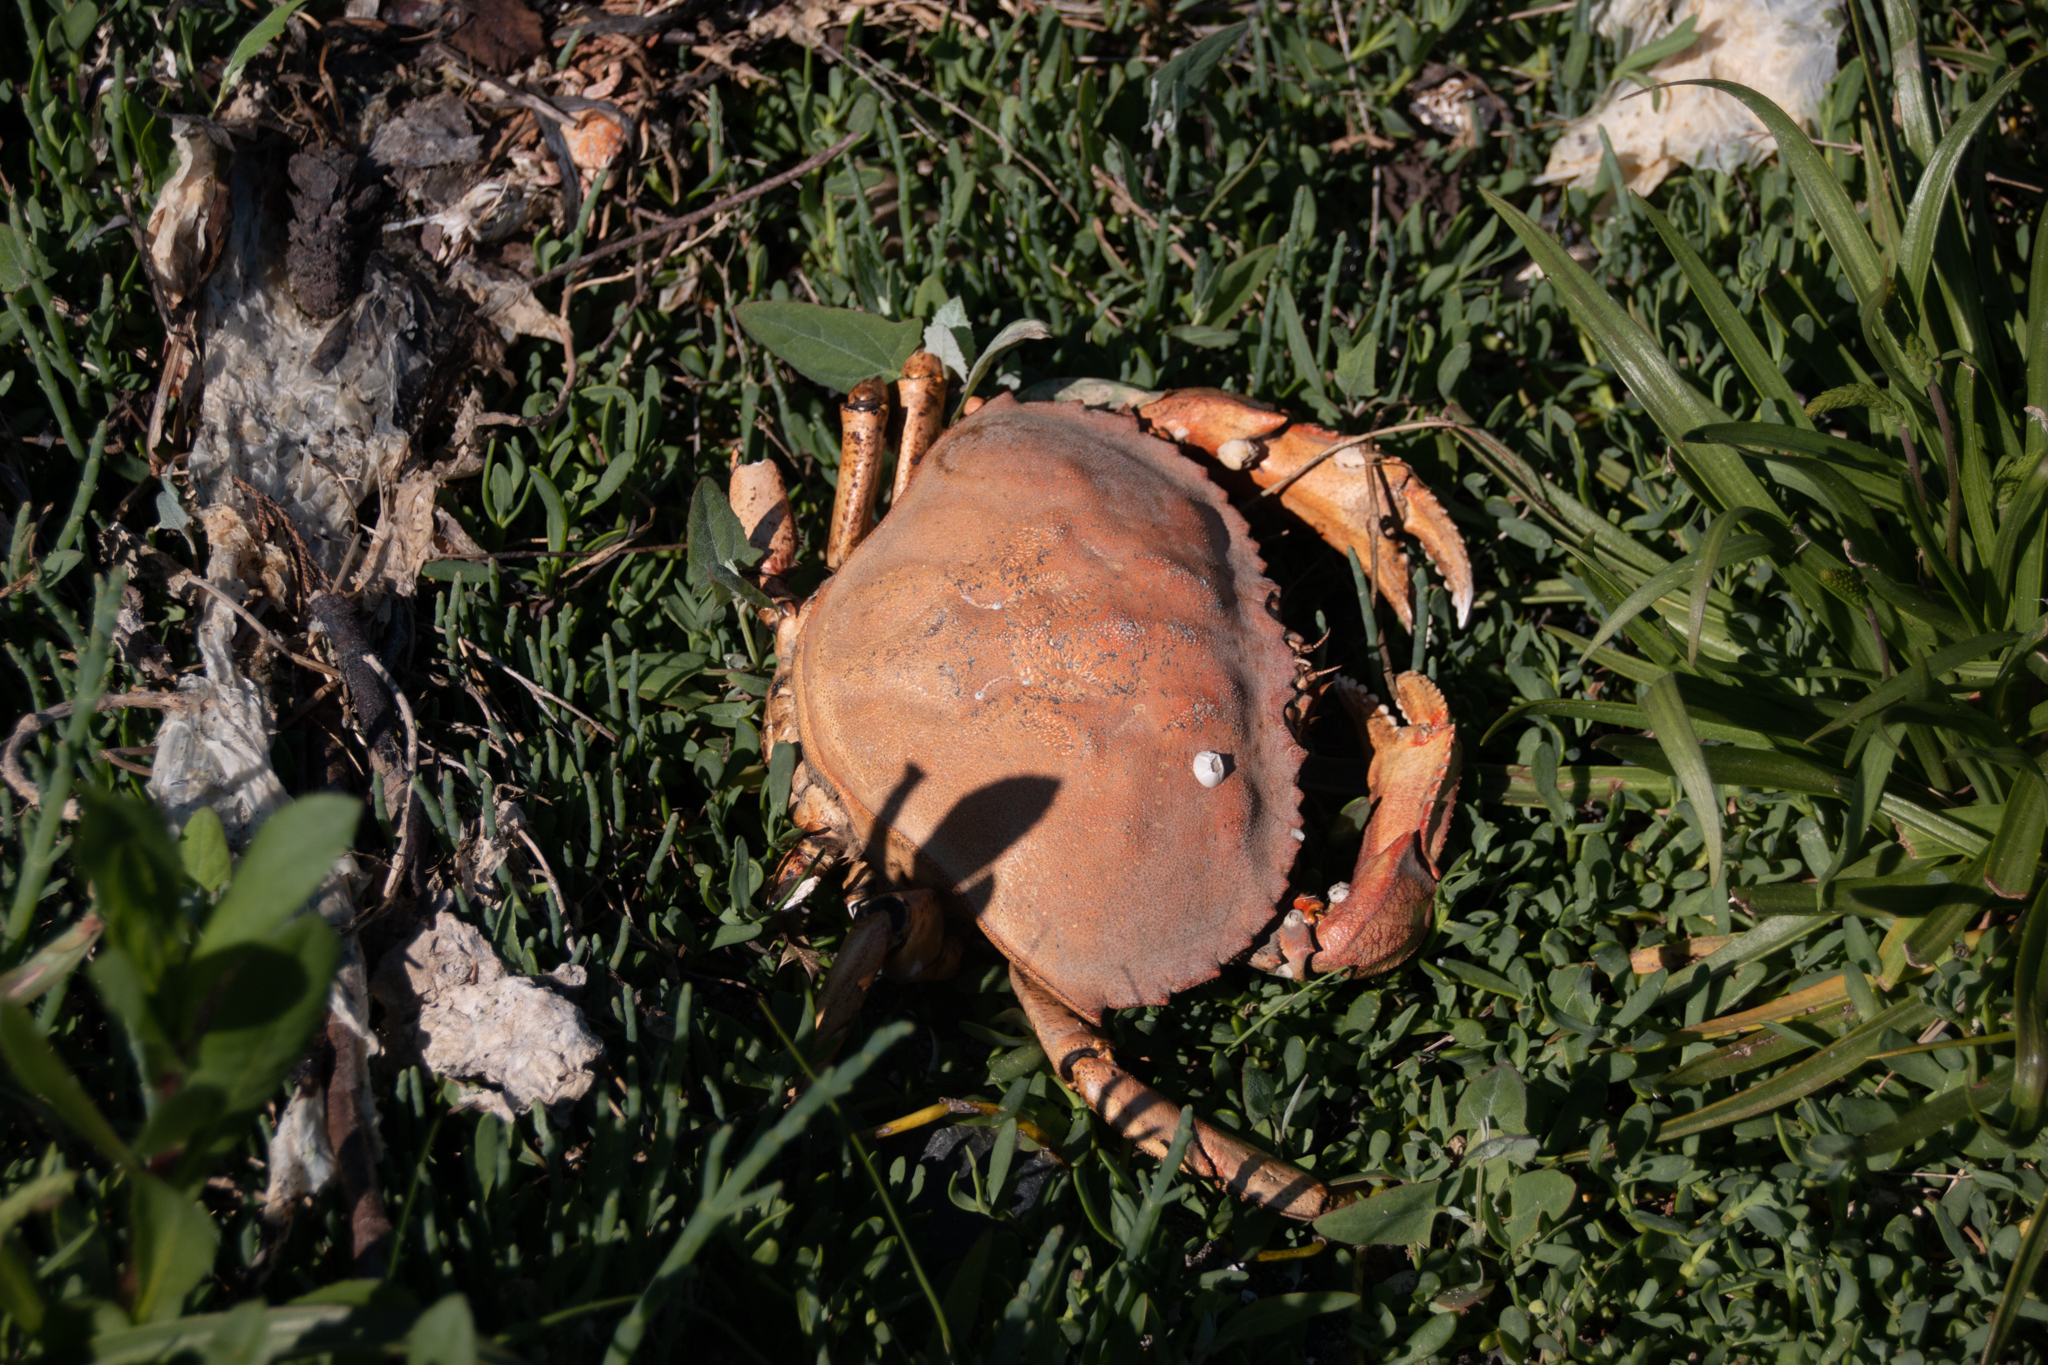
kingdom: Animalia
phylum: Arthropoda
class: Malacostraca
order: Decapoda
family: Cancridae
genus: Metacarcinus
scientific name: Metacarcinus magister
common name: Californian crab
